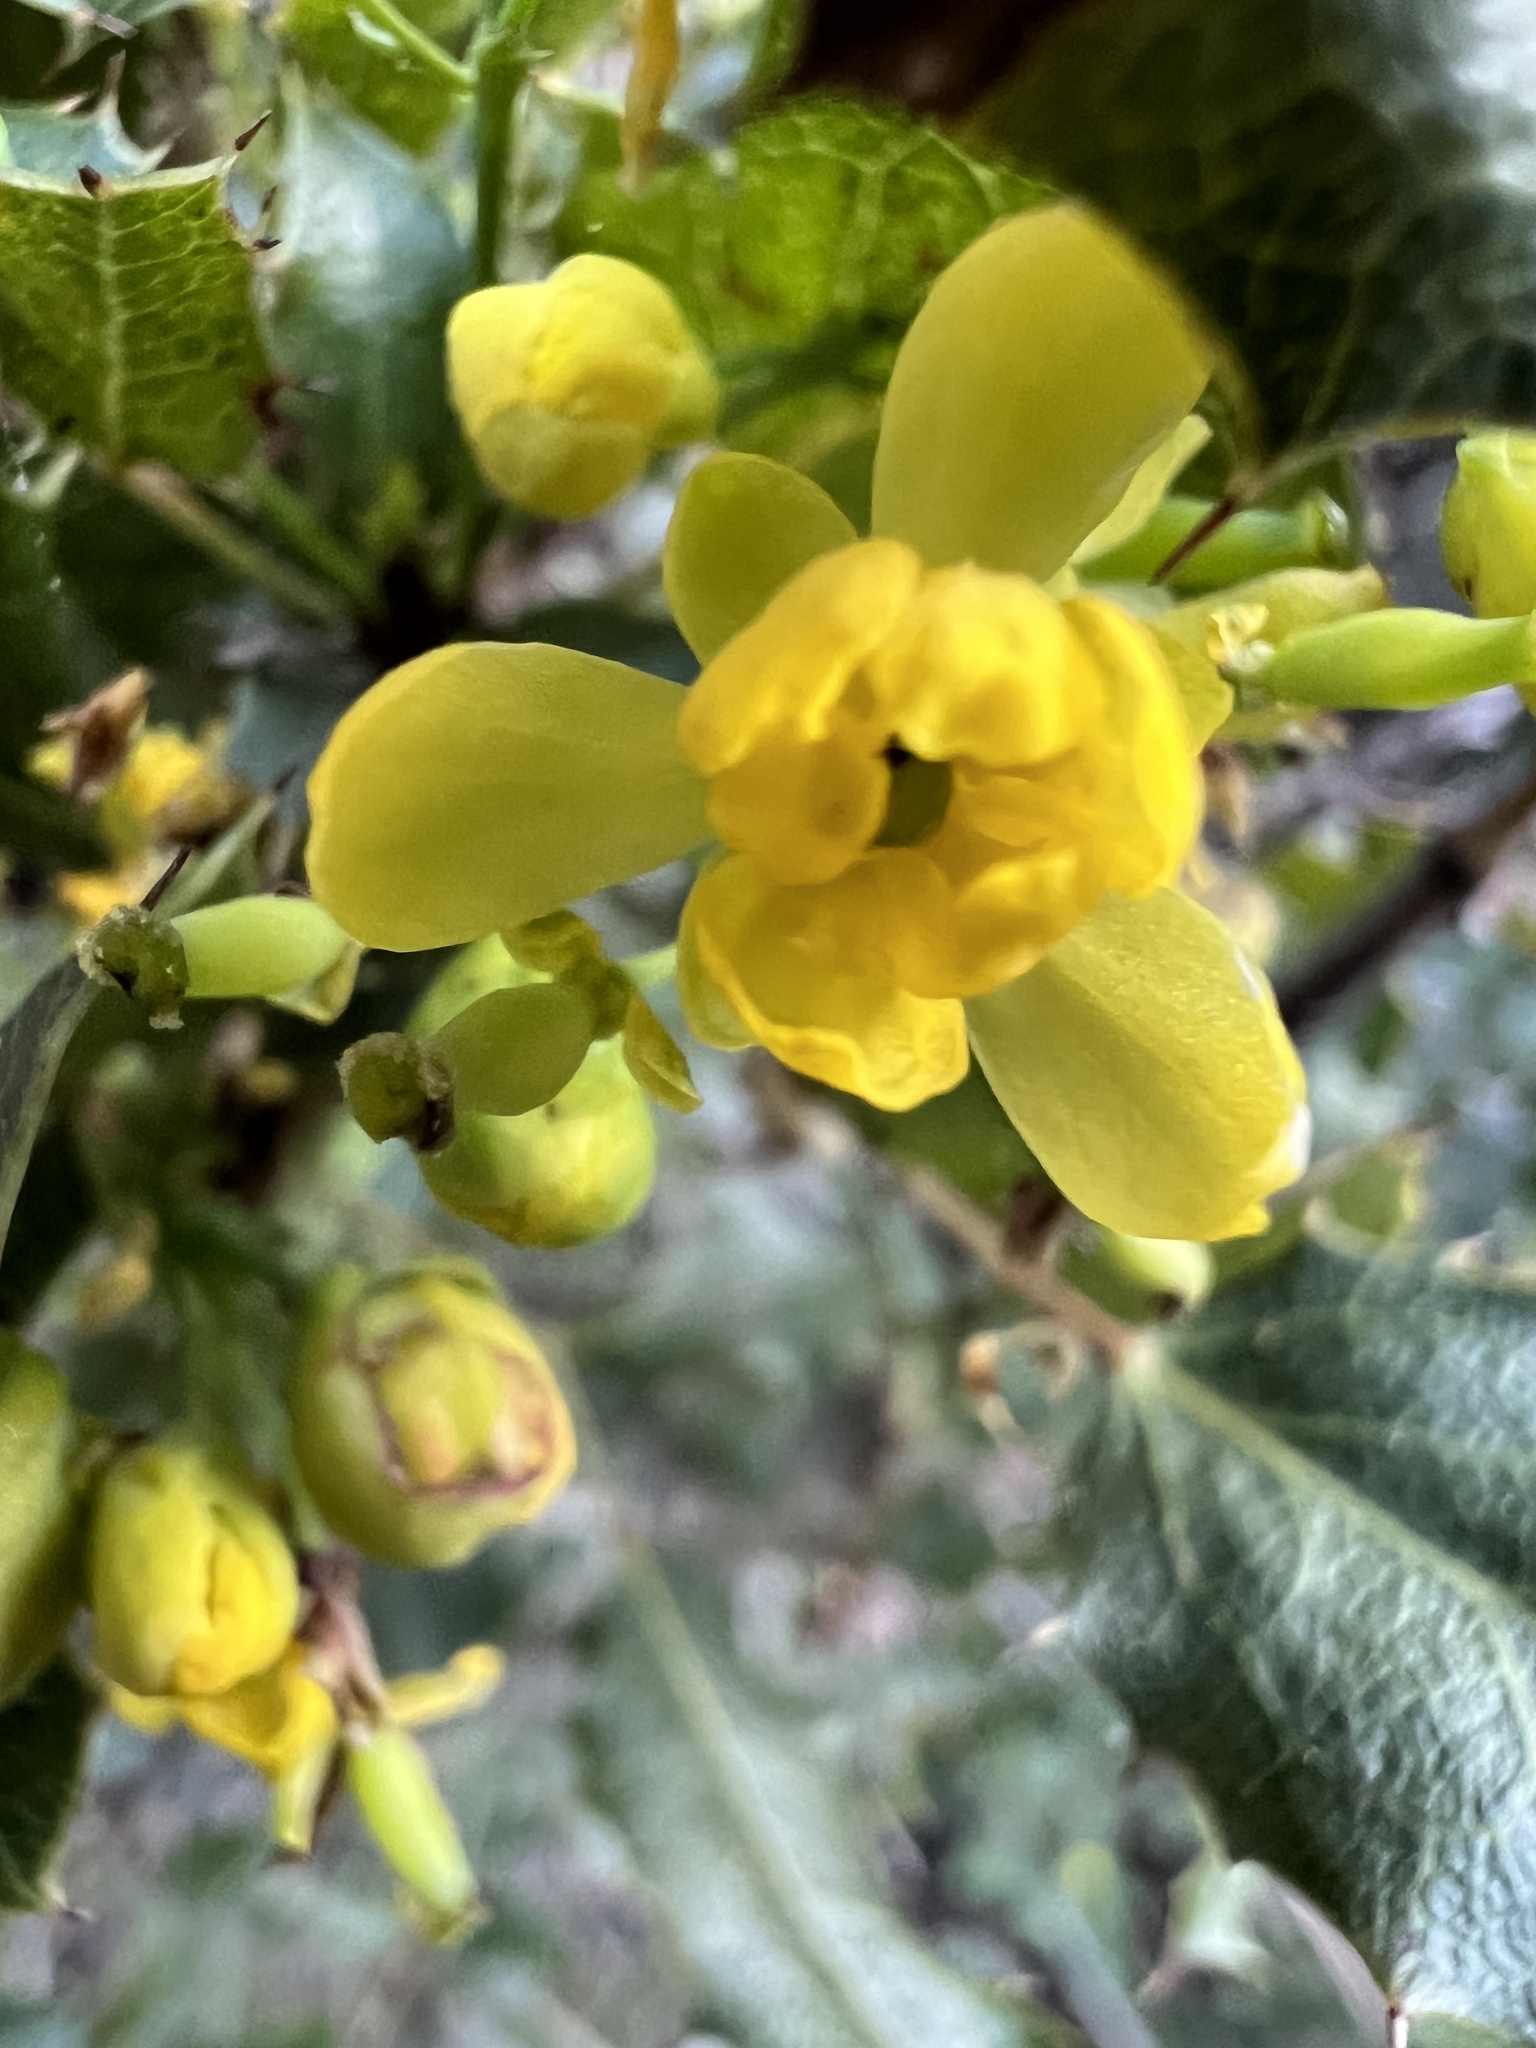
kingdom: Plantae
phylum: Tracheophyta
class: Magnoliopsida
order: Ranunculales
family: Berberidaceae
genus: Mahonia
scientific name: Mahonia
